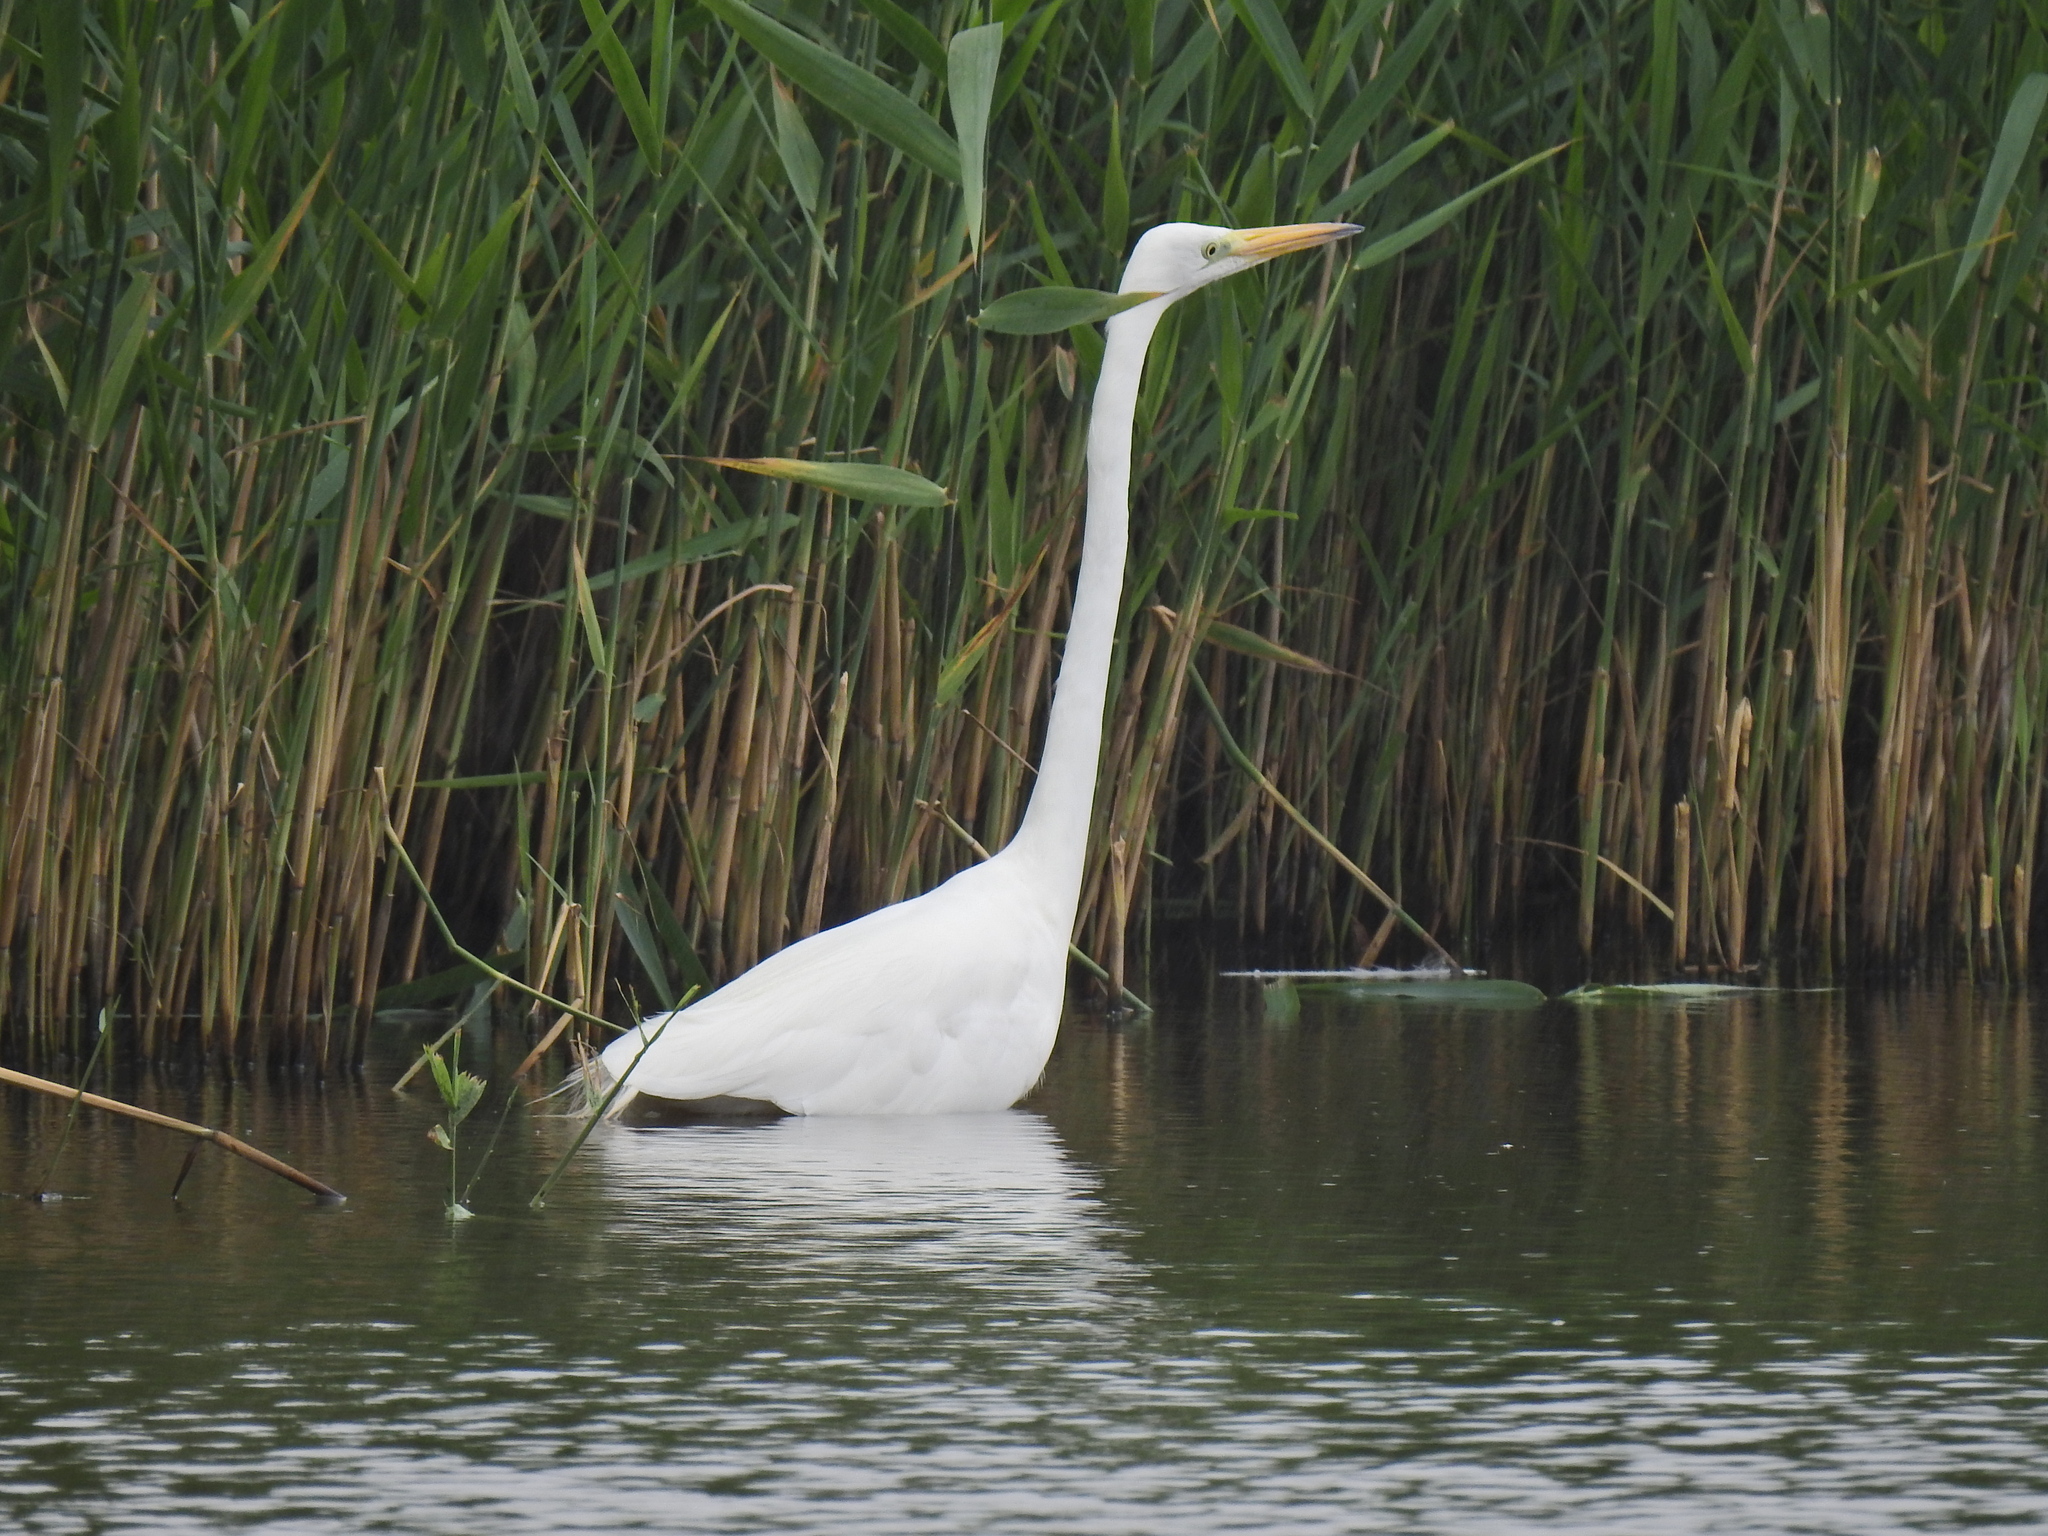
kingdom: Animalia
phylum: Chordata
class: Aves
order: Pelecaniformes
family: Ardeidae
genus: Ardea
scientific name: Ardea alba
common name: Great egret
